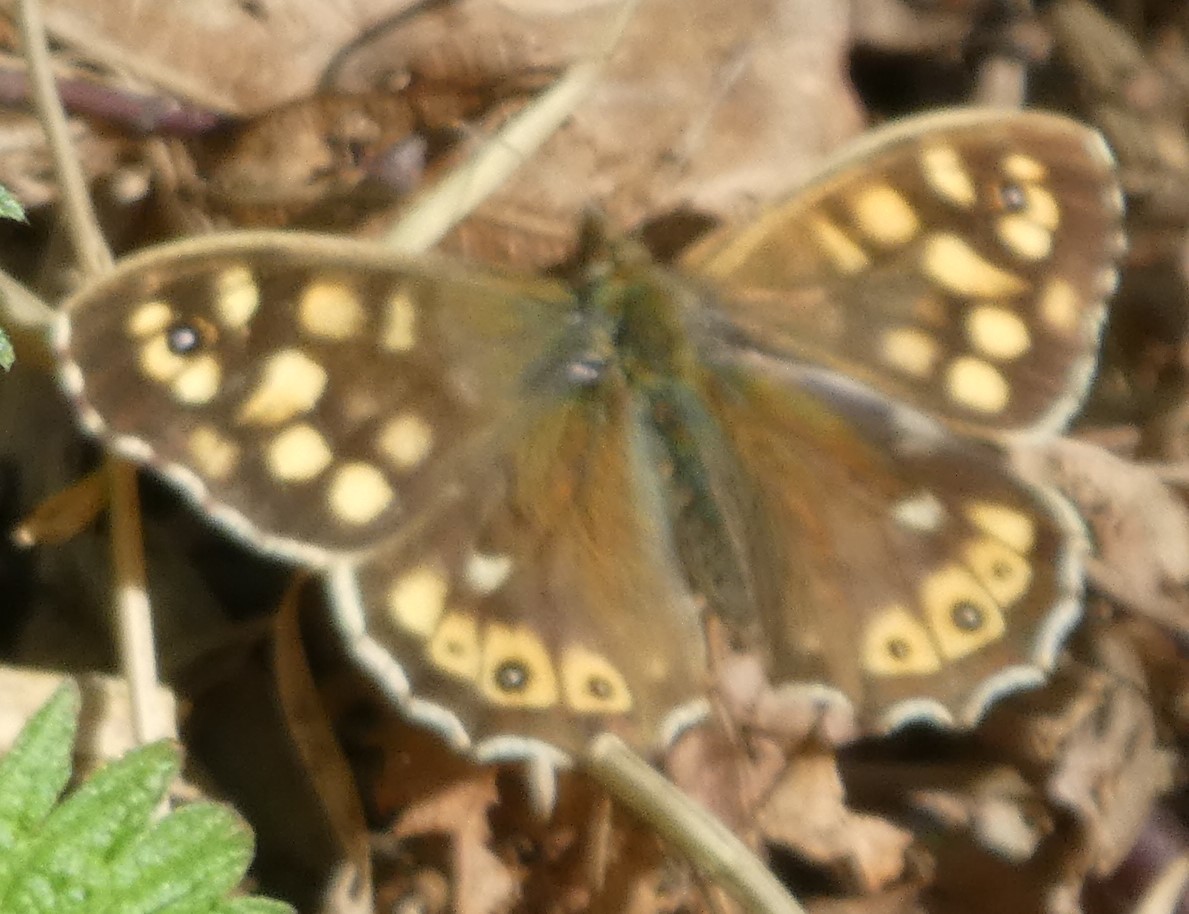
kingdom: Animalia
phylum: Arthropoda
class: Insecta
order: Lepidoptera
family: Nymphalidae
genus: Pararge
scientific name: Pararge aegeria
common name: Speckled wood
